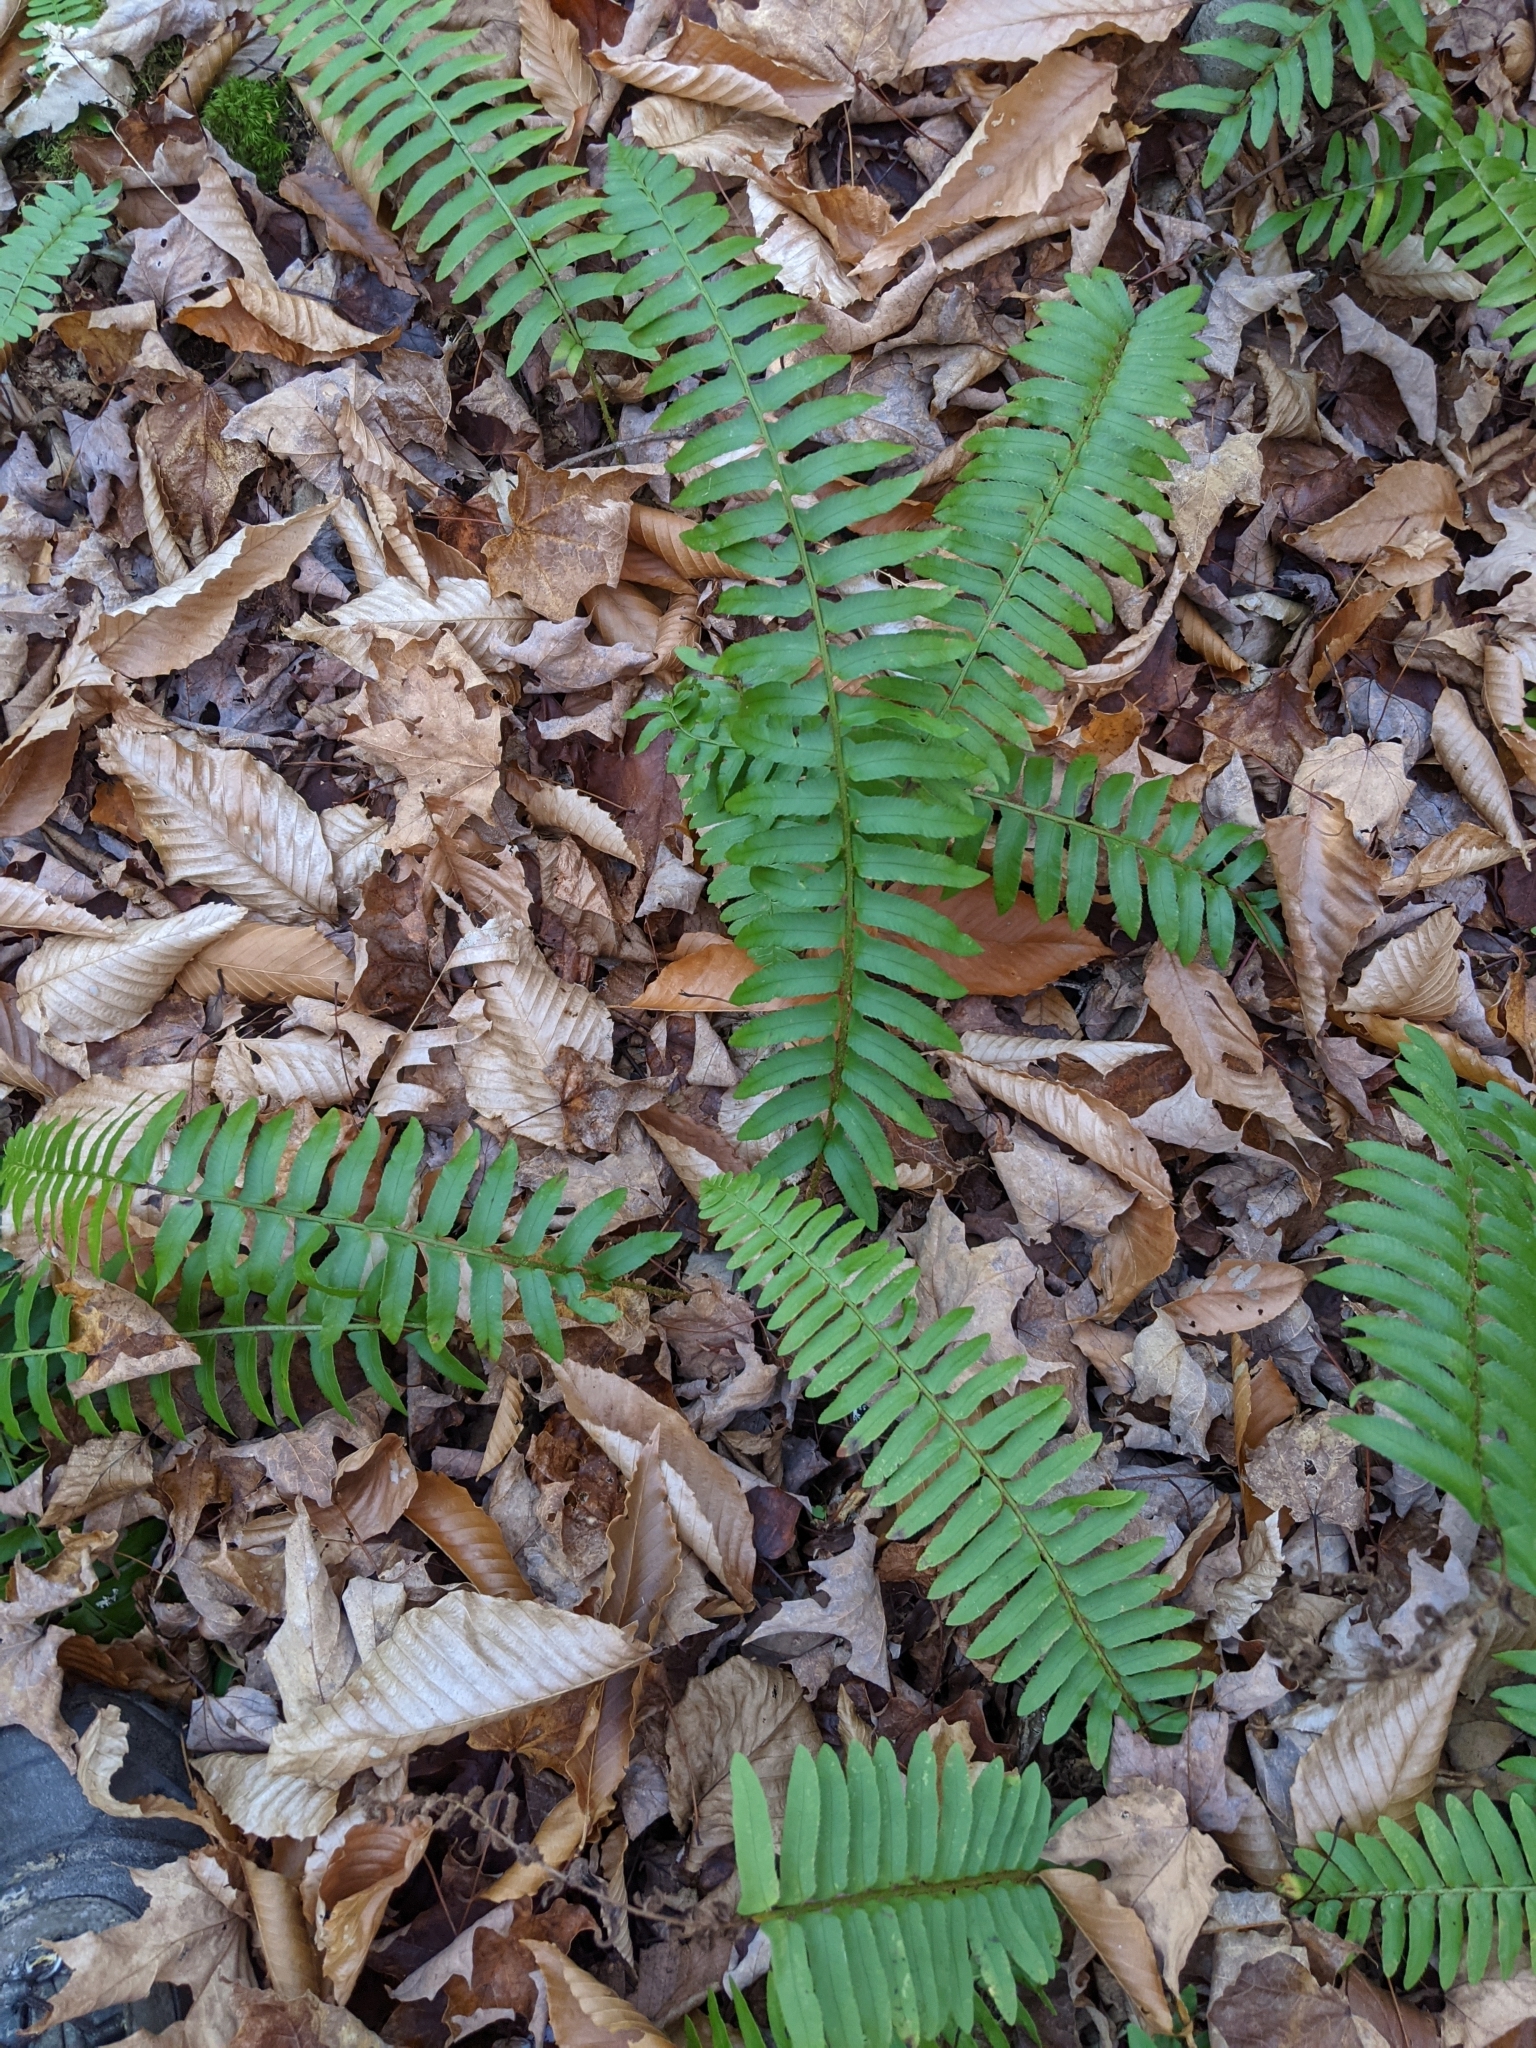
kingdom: Plantae
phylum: Tracheophyta
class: Polypodiopsida
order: Polypodiales
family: Dryopteridaceae
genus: Polystichum
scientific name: Polystichum acrostichoides
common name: Christmas fern
